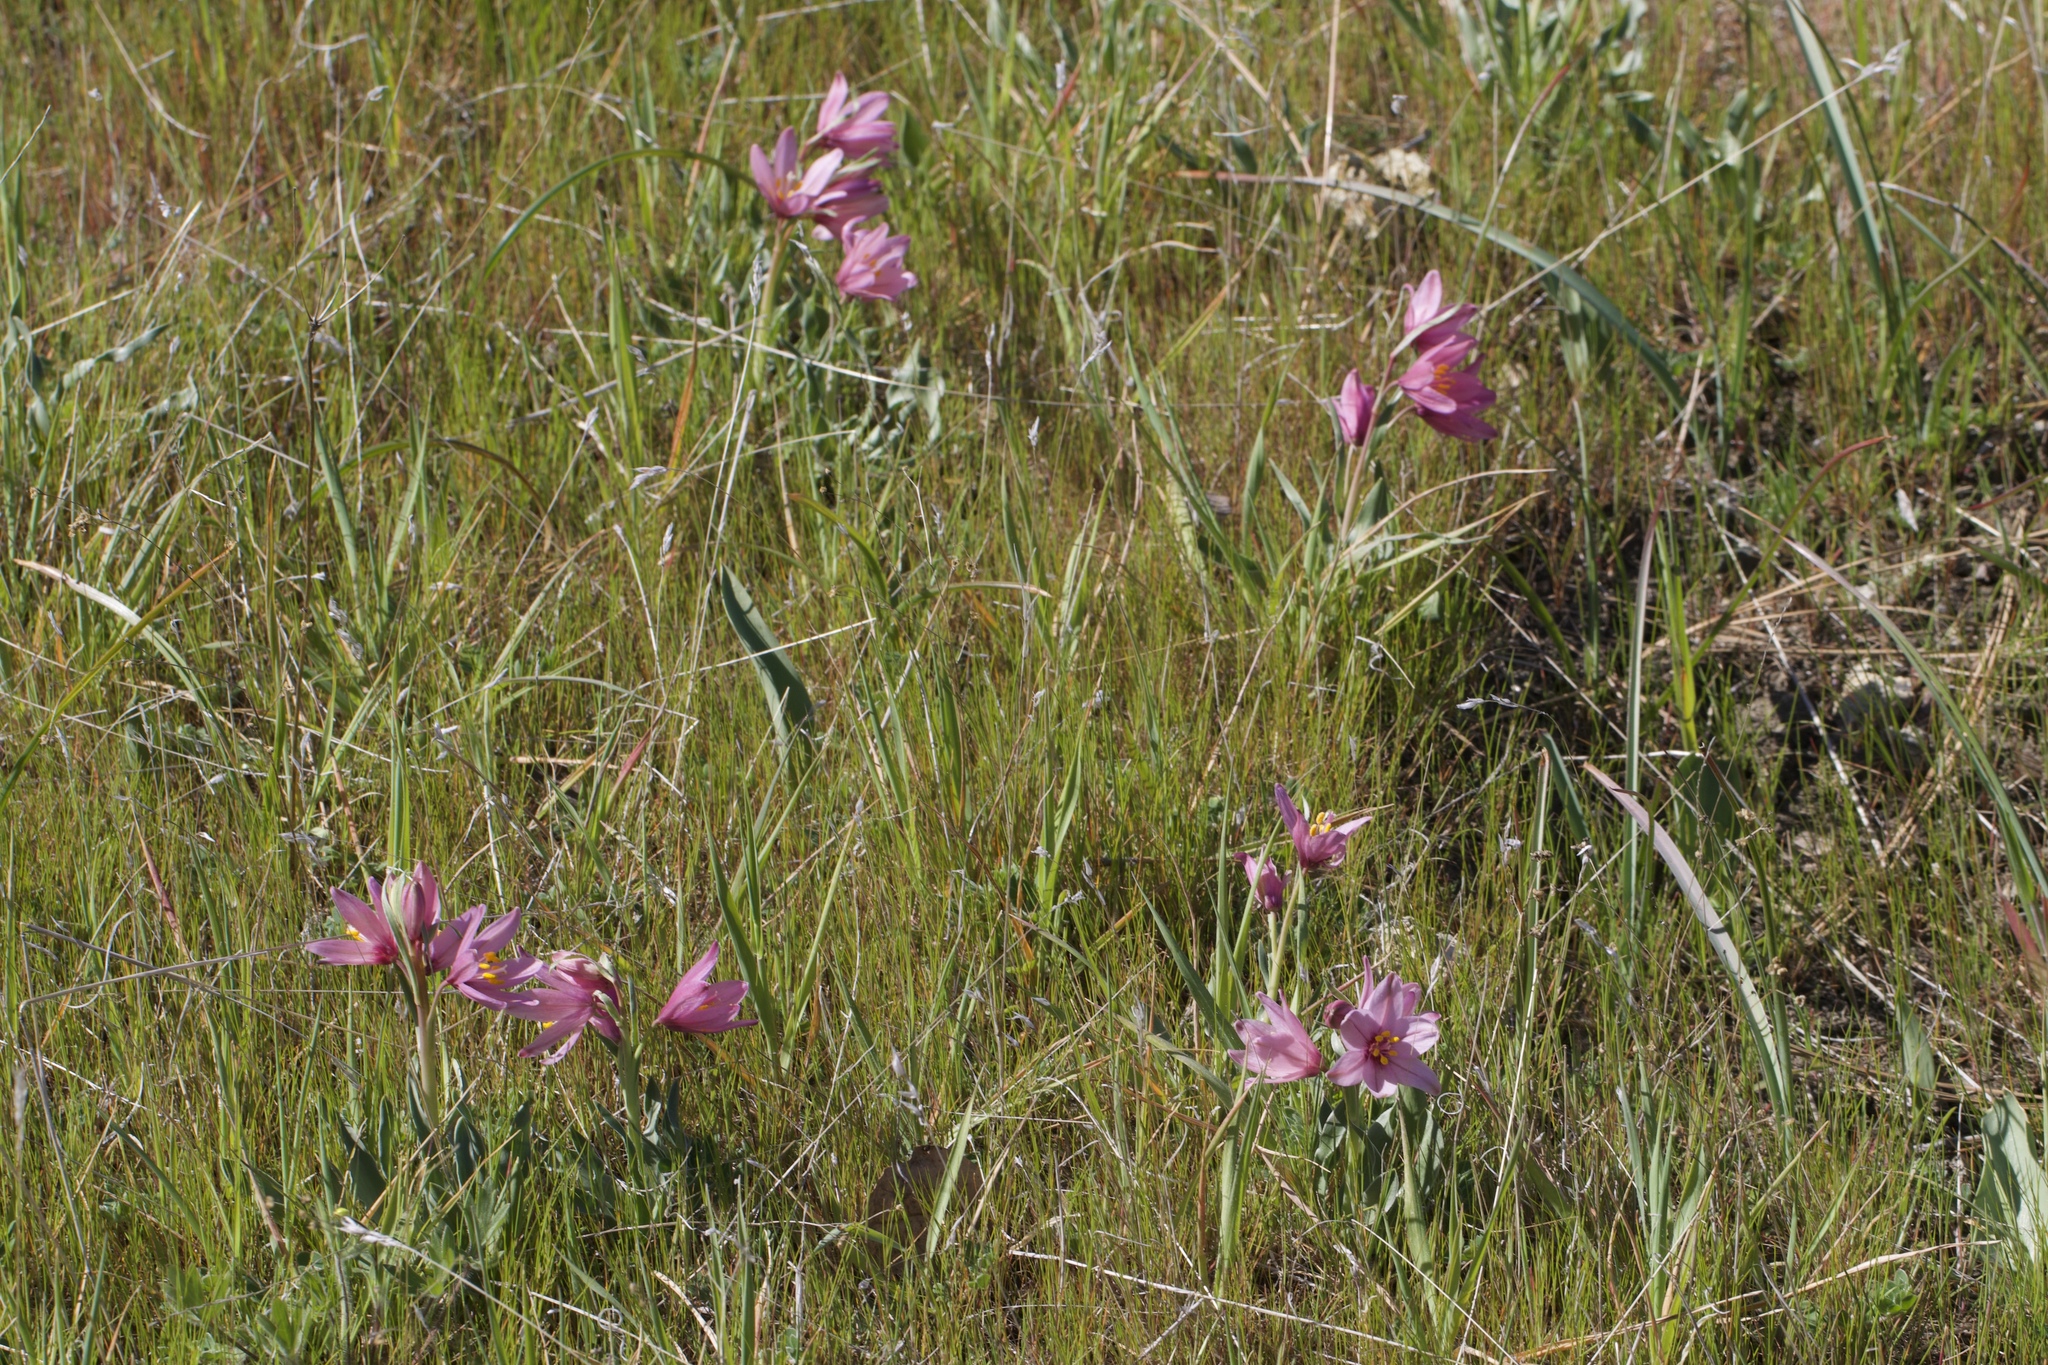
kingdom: Plantae
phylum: Tracheophyta
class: Liliopsida
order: Liliales
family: Liliaceae
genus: Fritillaria
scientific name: Fritillaria pluriflora
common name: Adobe-lily
